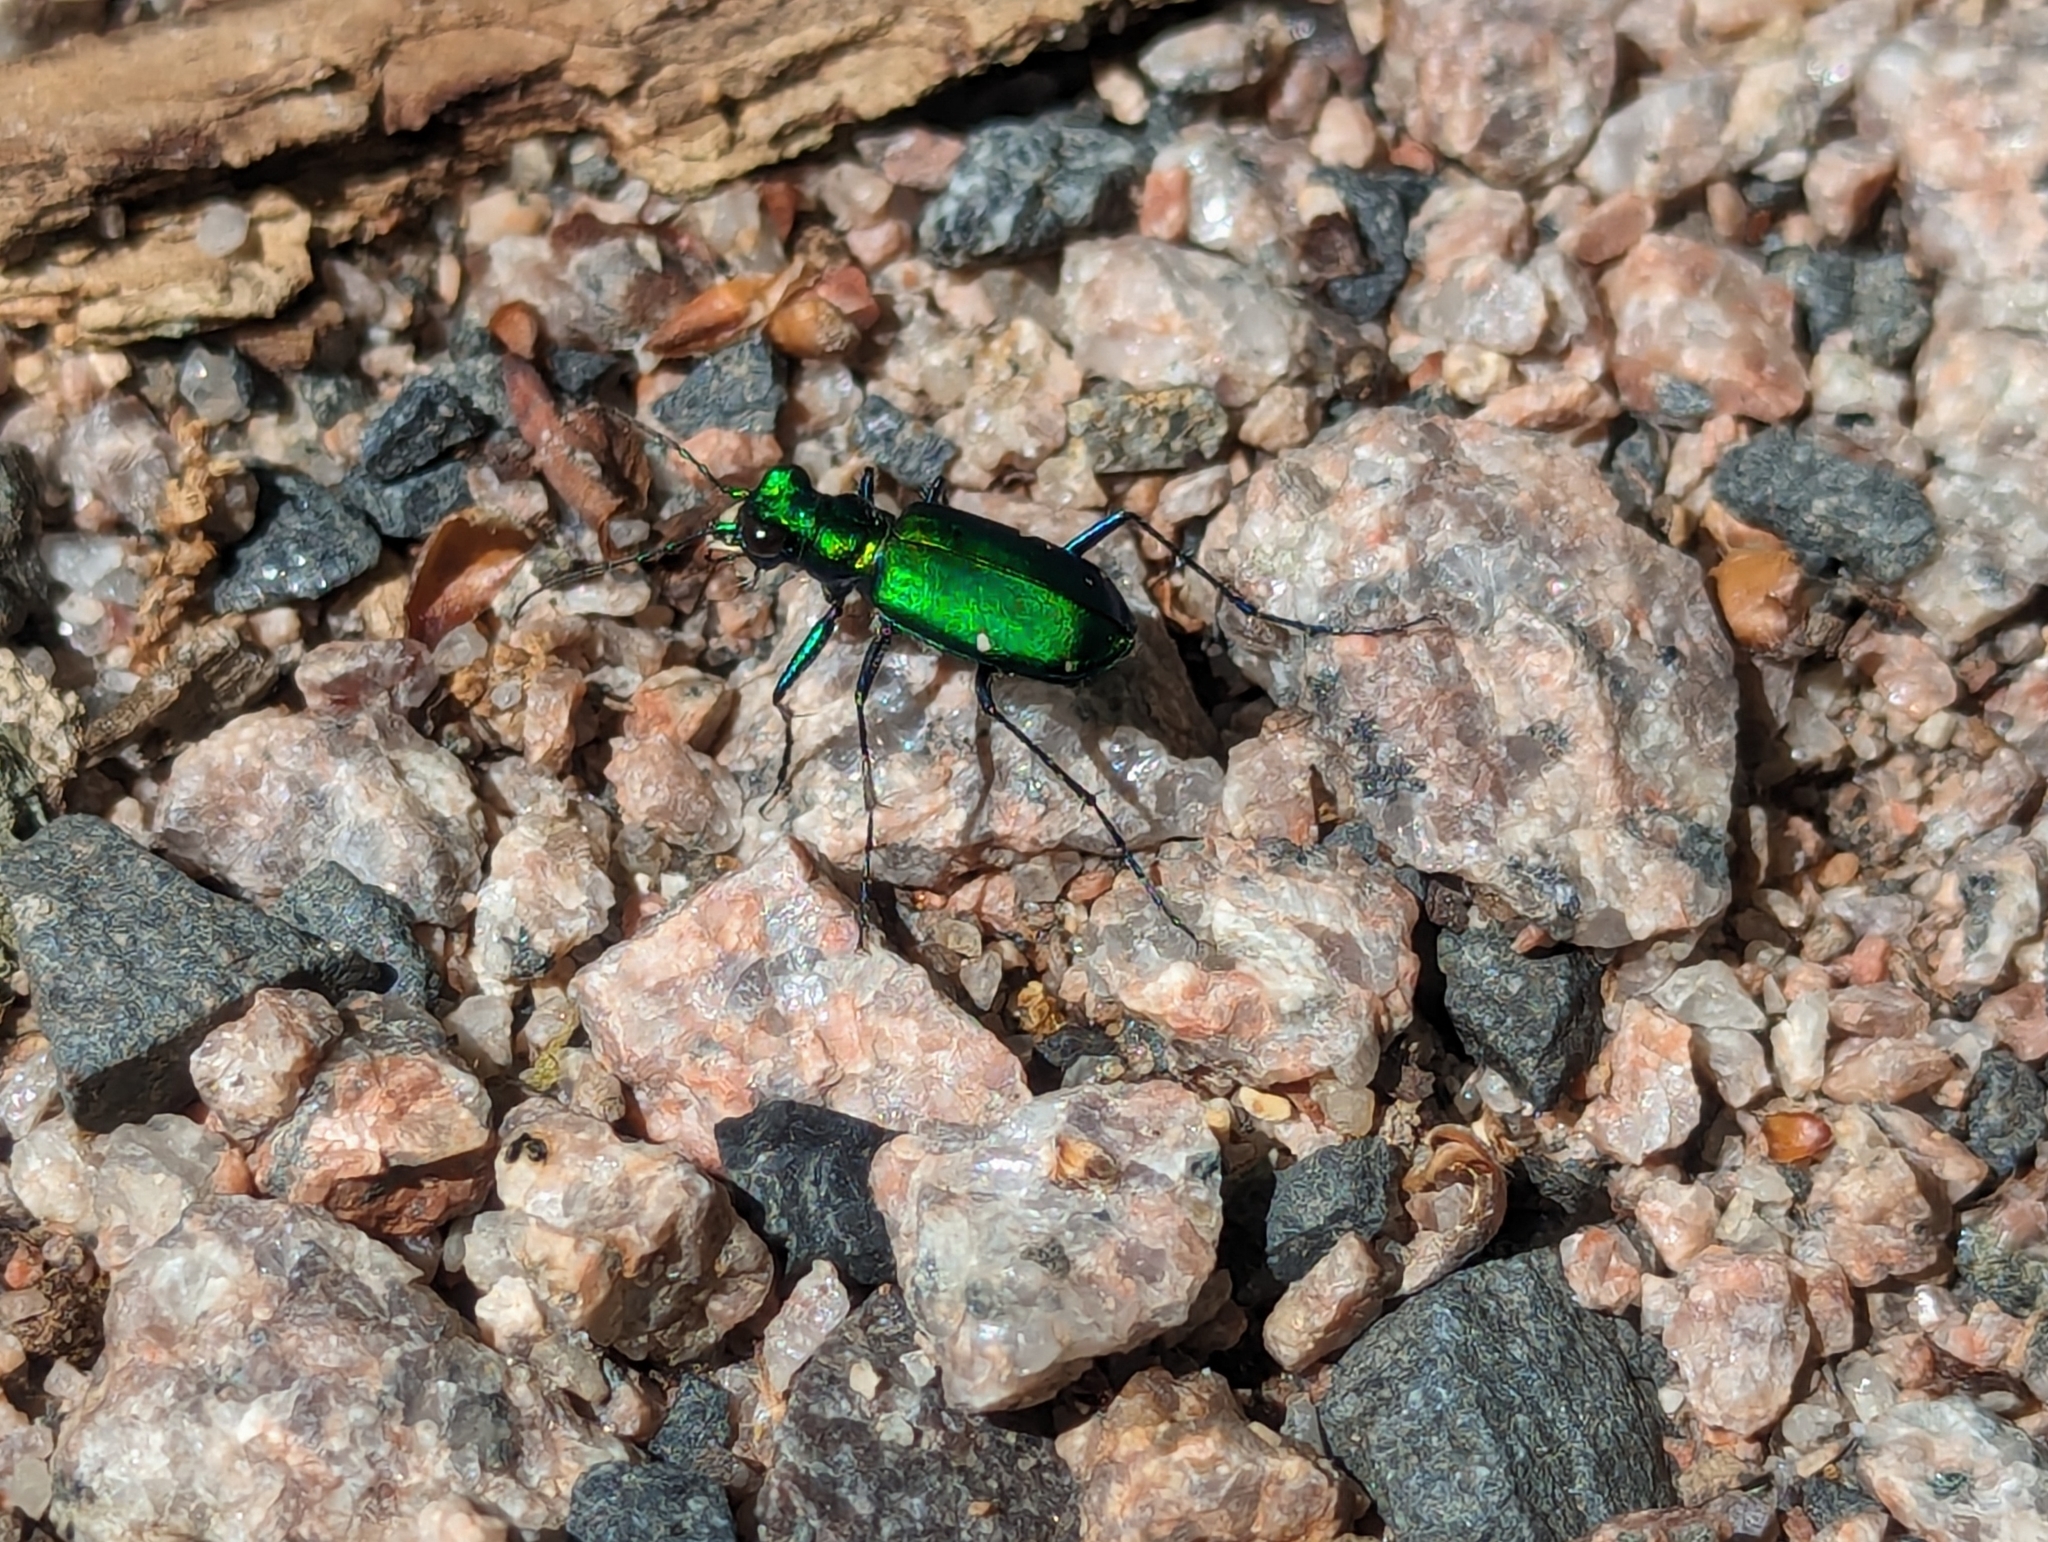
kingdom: Animalia
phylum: Arthropoda
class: Insecta
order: Coleoptera
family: Carabidae
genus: Cicindela
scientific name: Cicindela sexguttata
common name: Six-spotted tiger beetle
